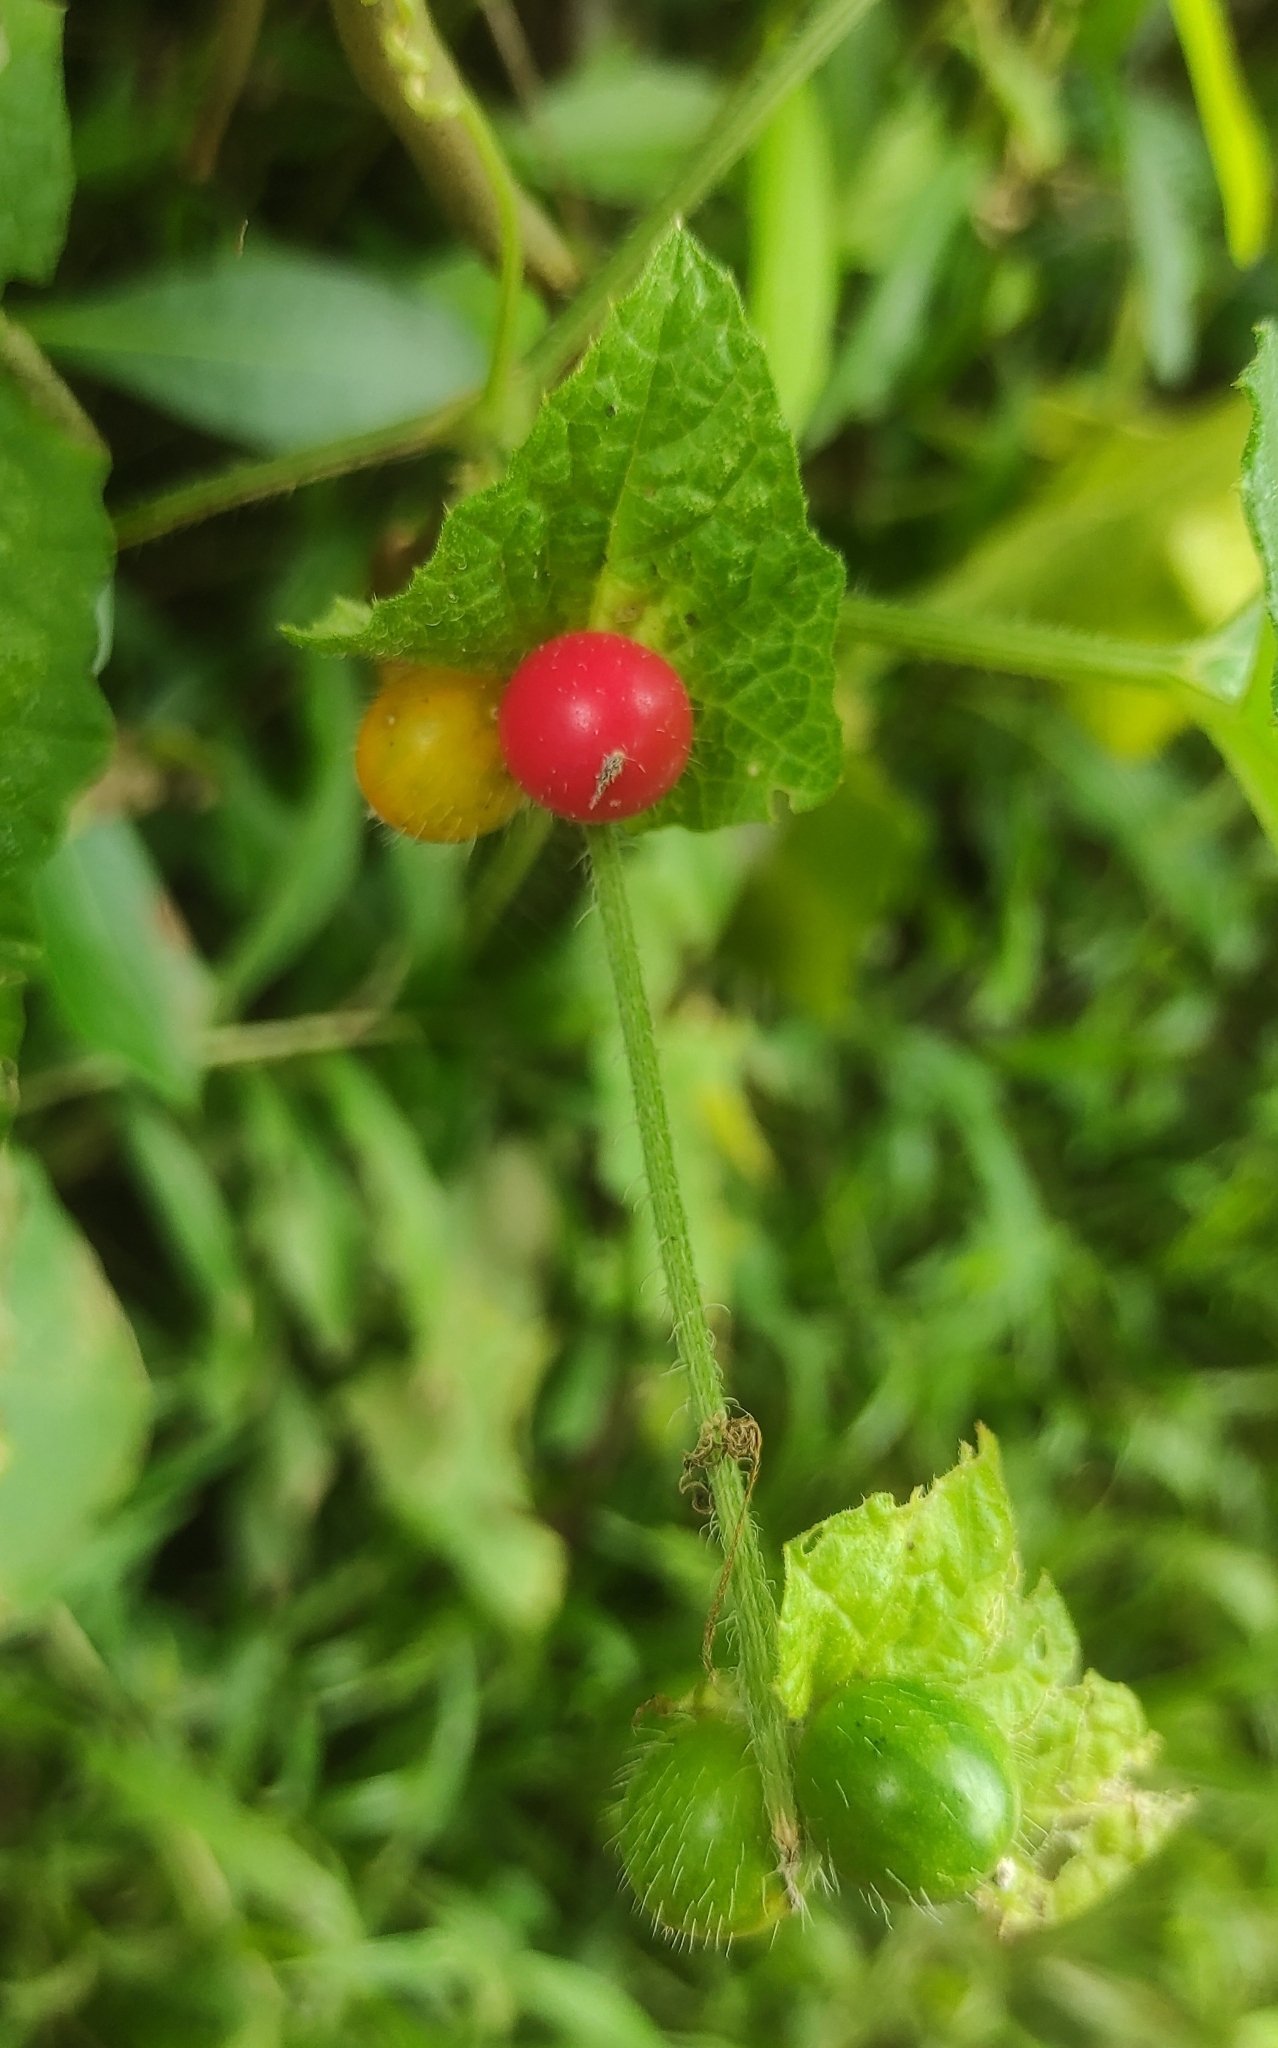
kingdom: Plantae
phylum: Tracheophyta
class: Magnoliopsida
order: Cucurbitales
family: Cucurbitaceae
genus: Cucumis
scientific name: Cucumis maderaspatanus
